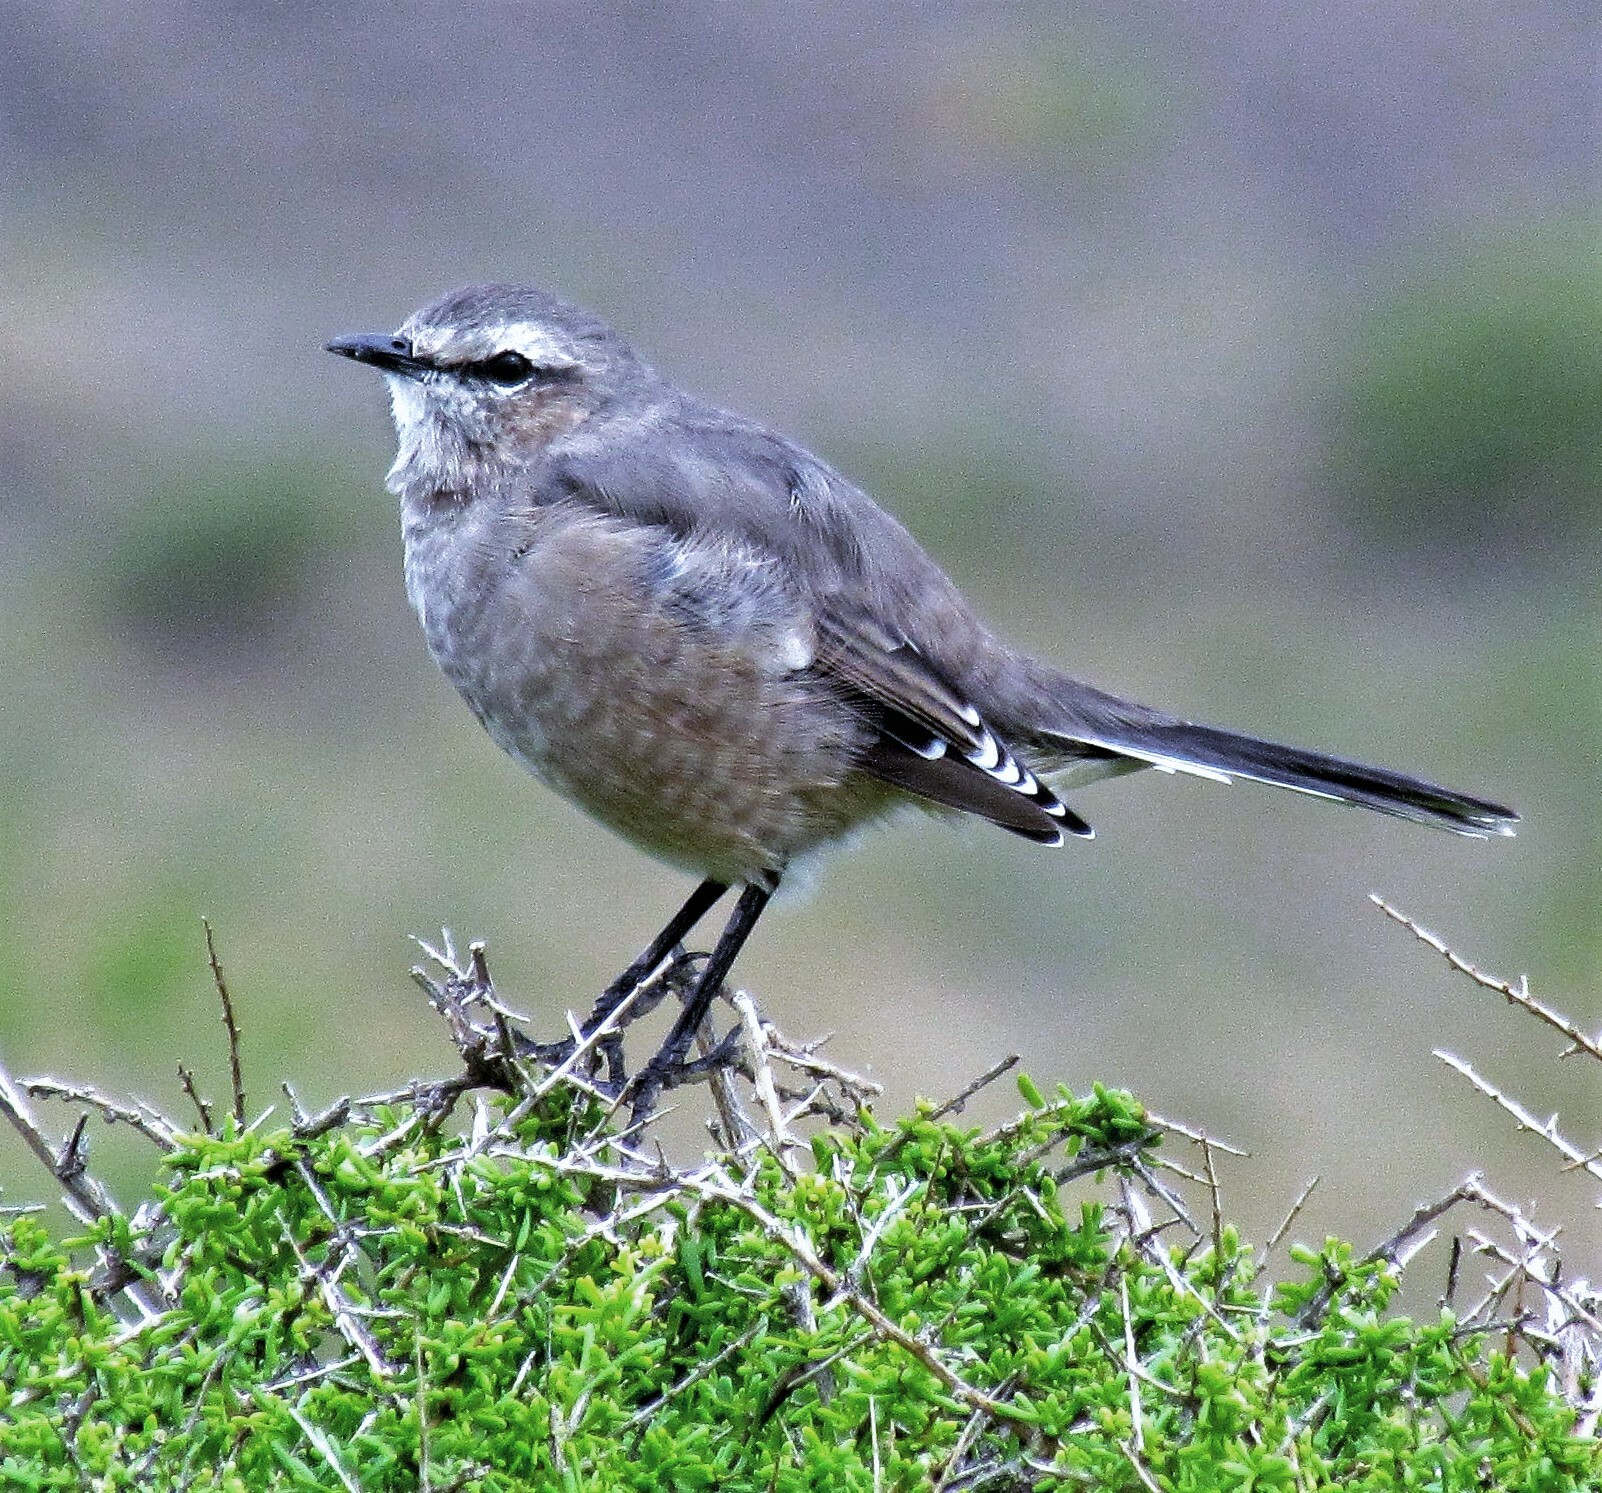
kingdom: Animalia
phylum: Chordata
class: Aves
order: Passeriformes
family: Mimidae
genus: Mimus
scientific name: Mimus patagonicus
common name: Patagonian mockingbird
